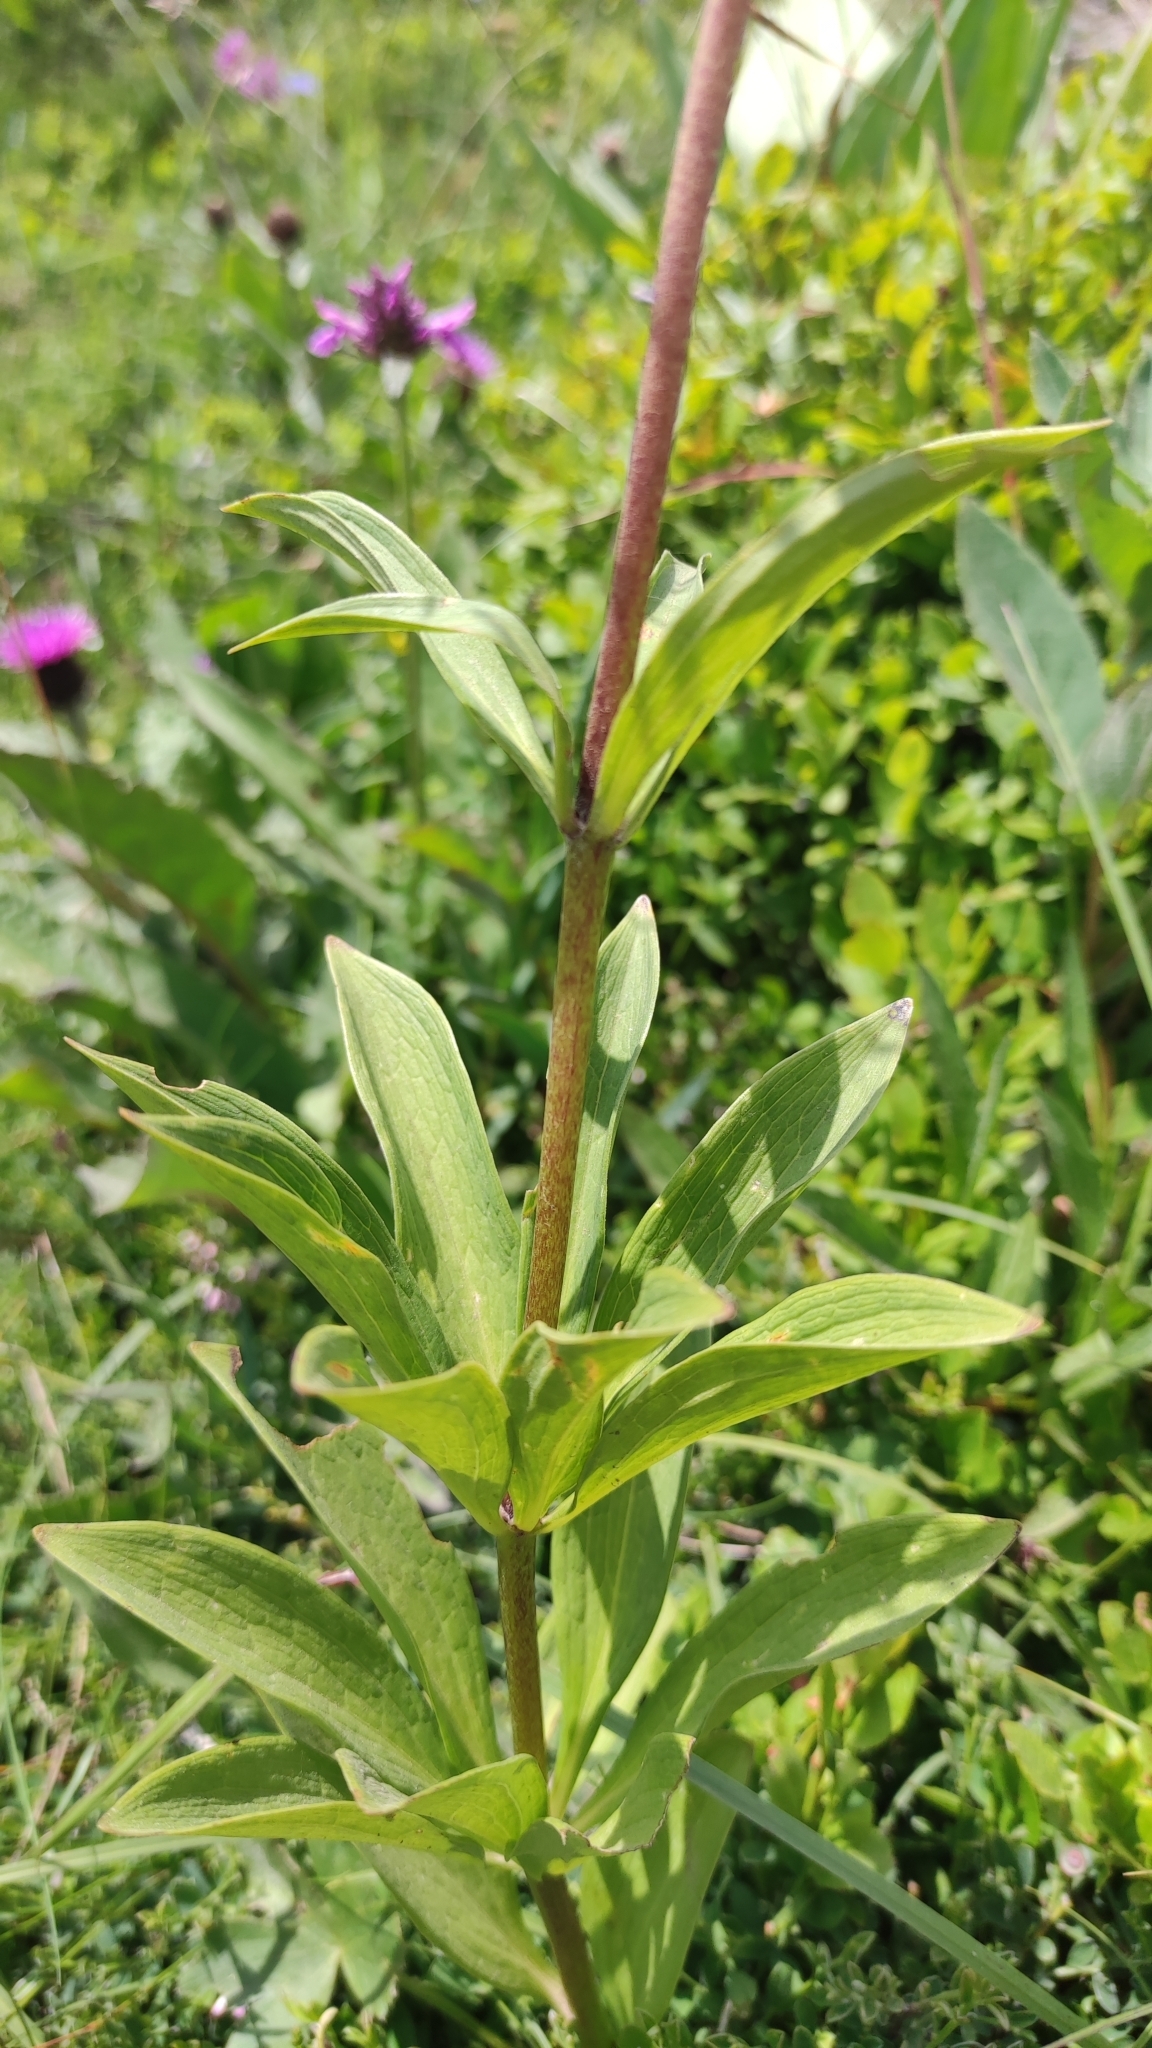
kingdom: Plantae
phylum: Tracheophyta
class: Liliopsida
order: Liliales
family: Liliaceae
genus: Lilium
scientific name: Lilium martagon
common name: Martagon lily
